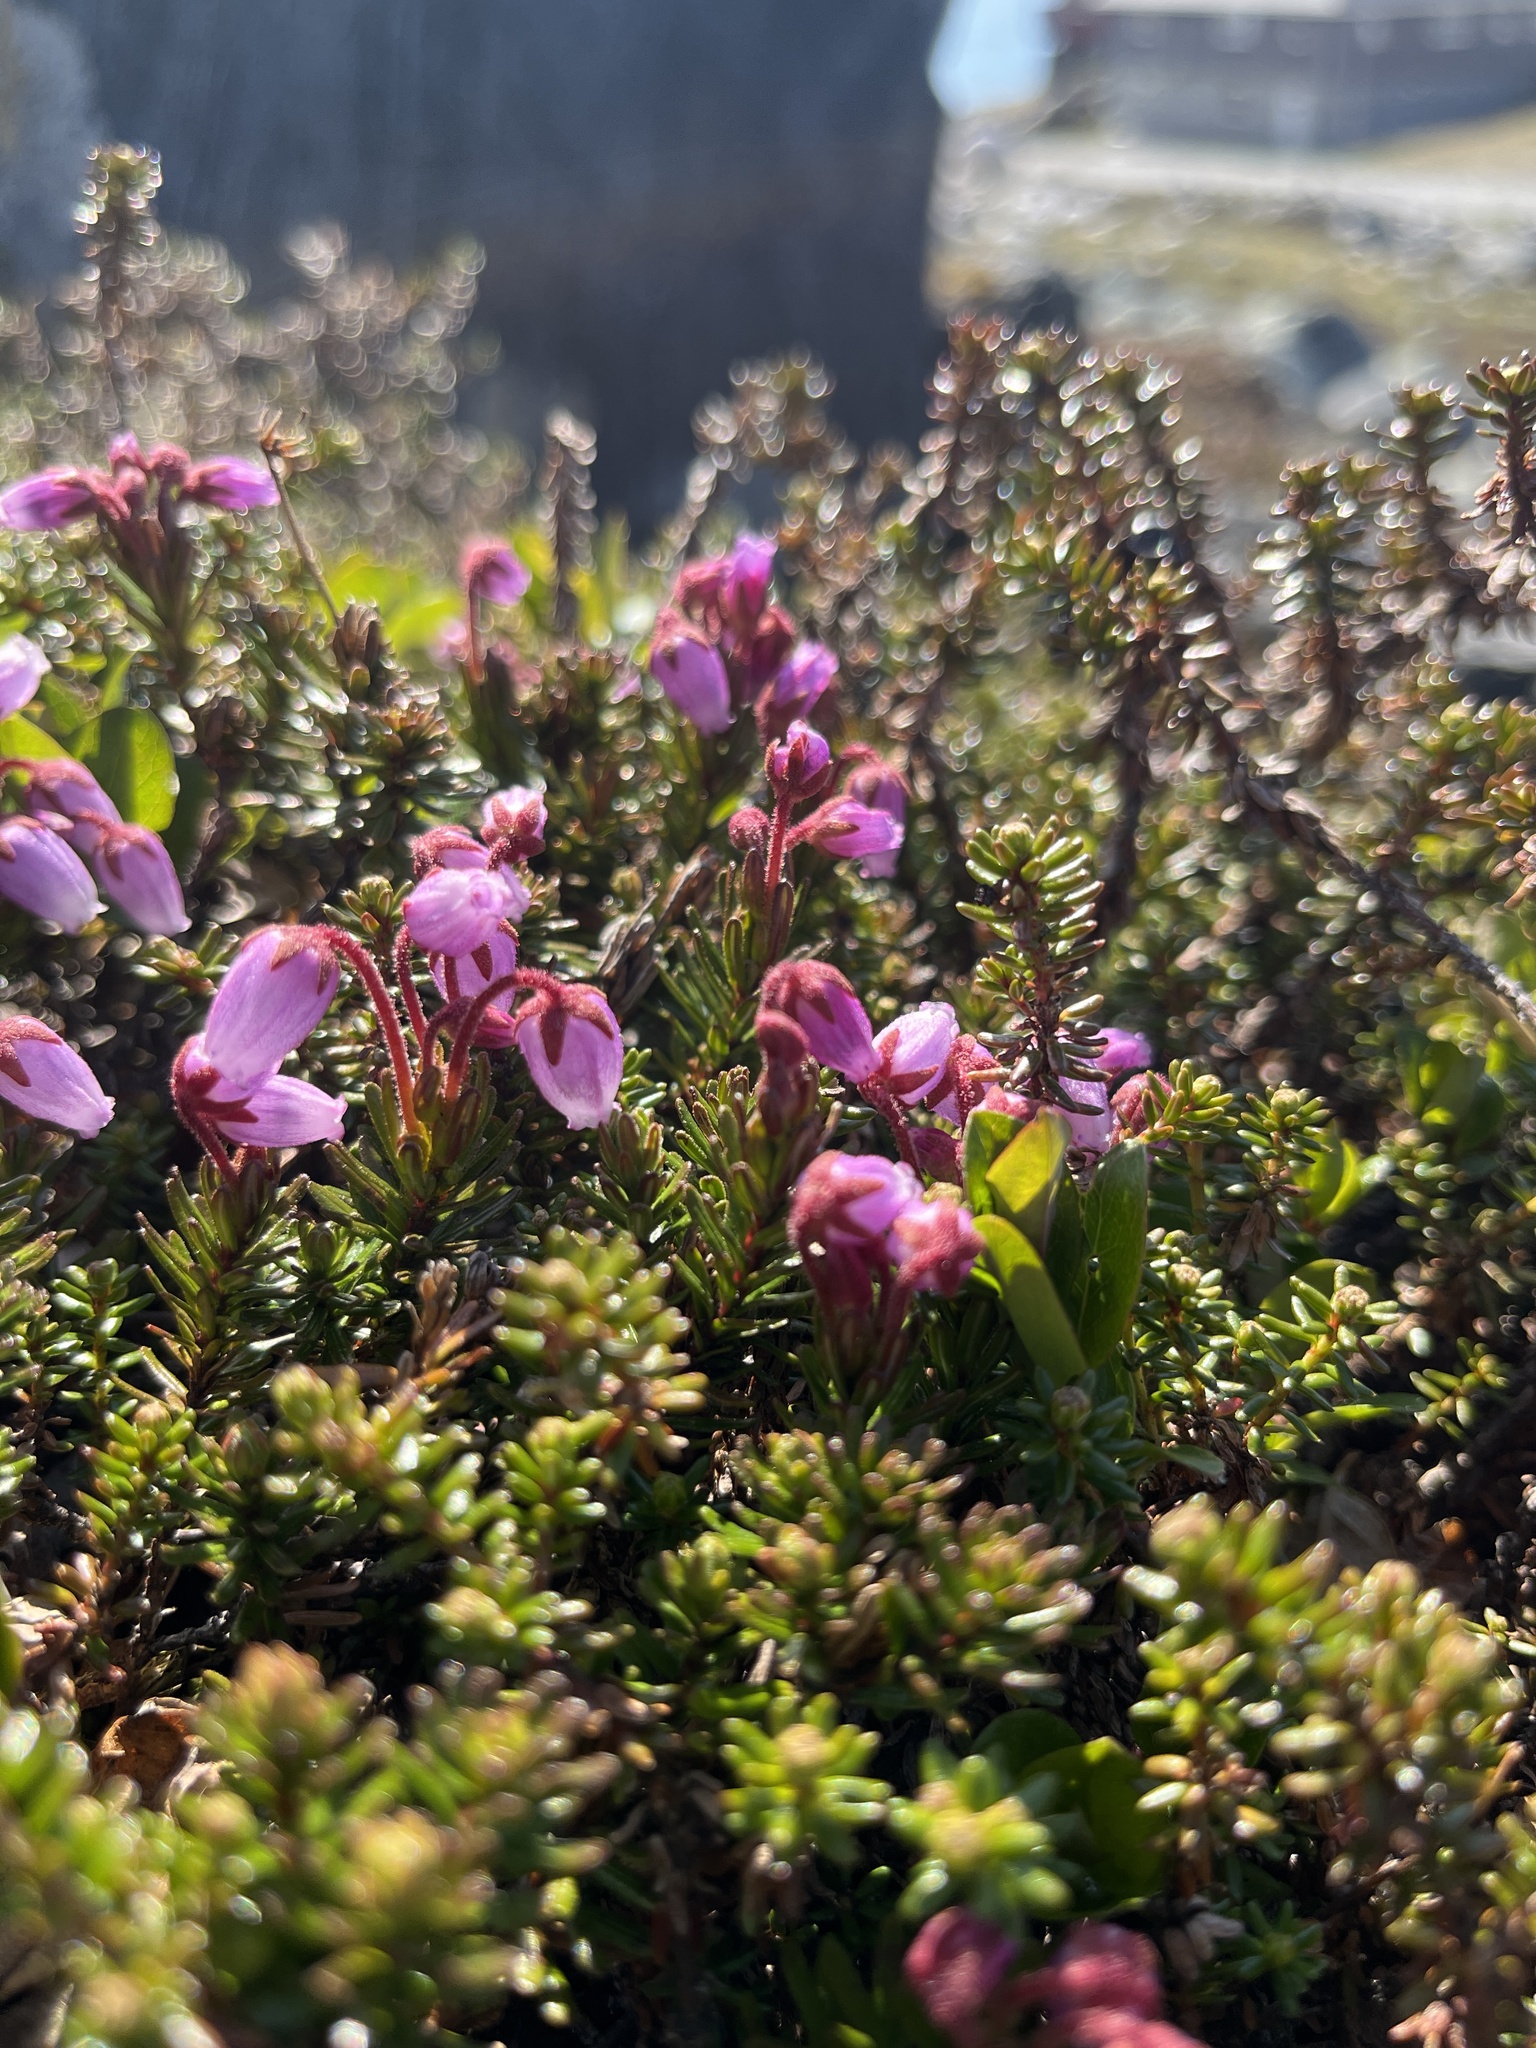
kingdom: Plantae
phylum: Tracheophyta
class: Magnoliopsida
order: Ericales
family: Ericaceae
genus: Phyllodoce
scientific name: Phyllodoce caerulea
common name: Blue heath
